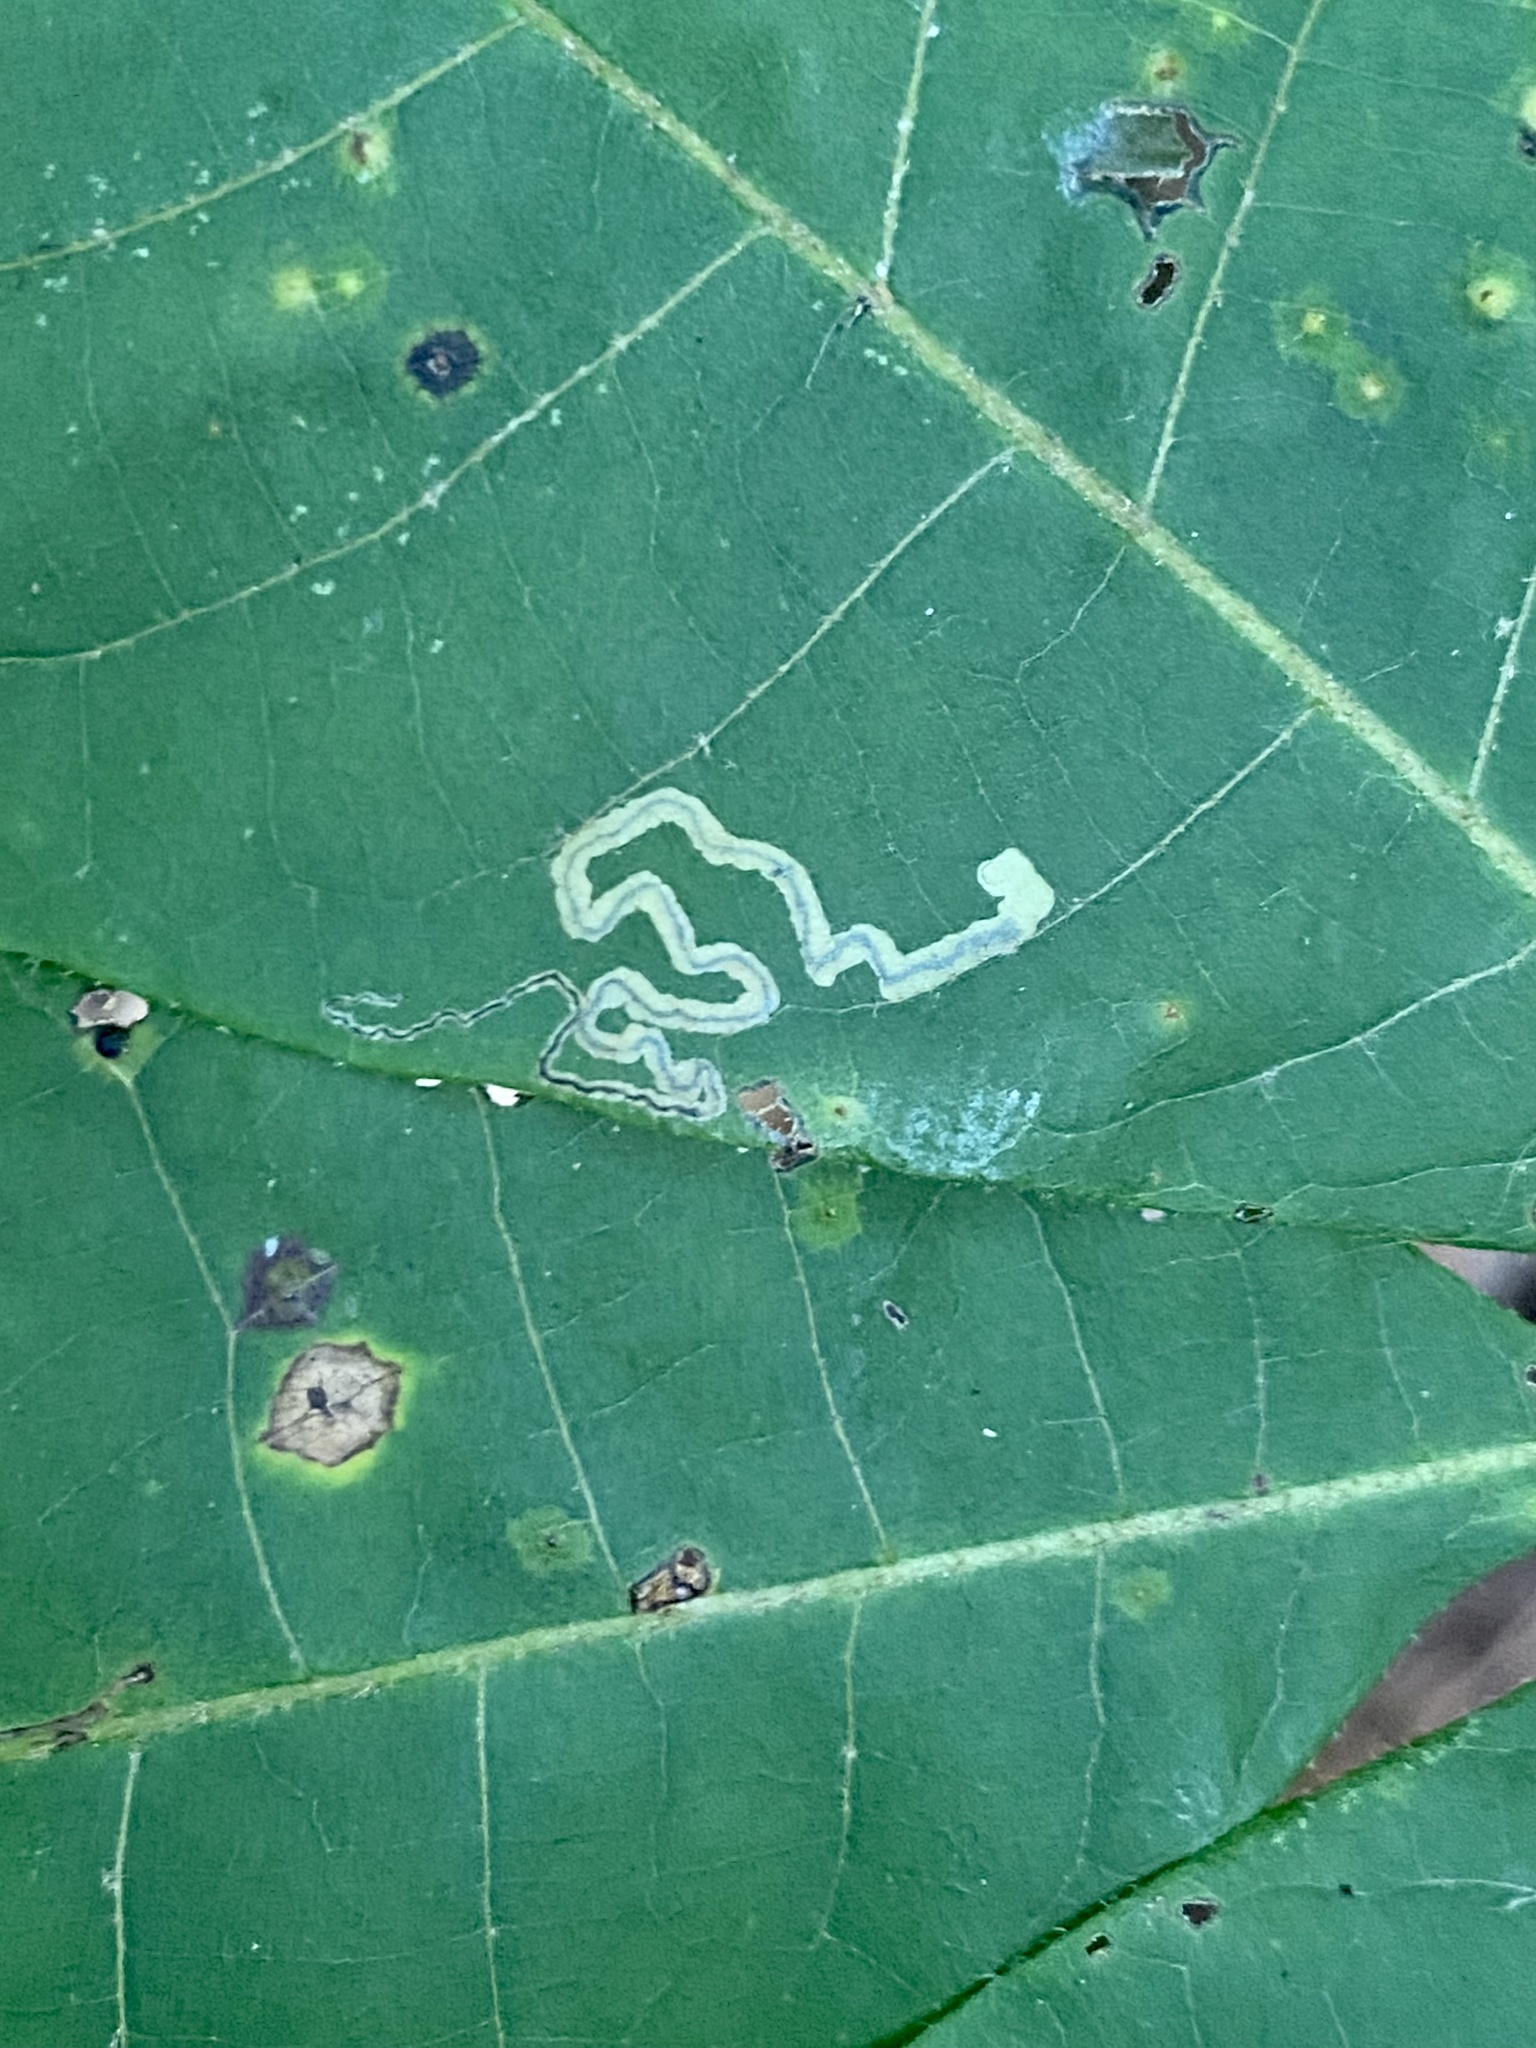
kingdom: Animalia
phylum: Arthropoda
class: Insecta
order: Lepidoptera
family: Nepticulidae
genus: Stigmella
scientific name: Stigmella caryaefoliella
